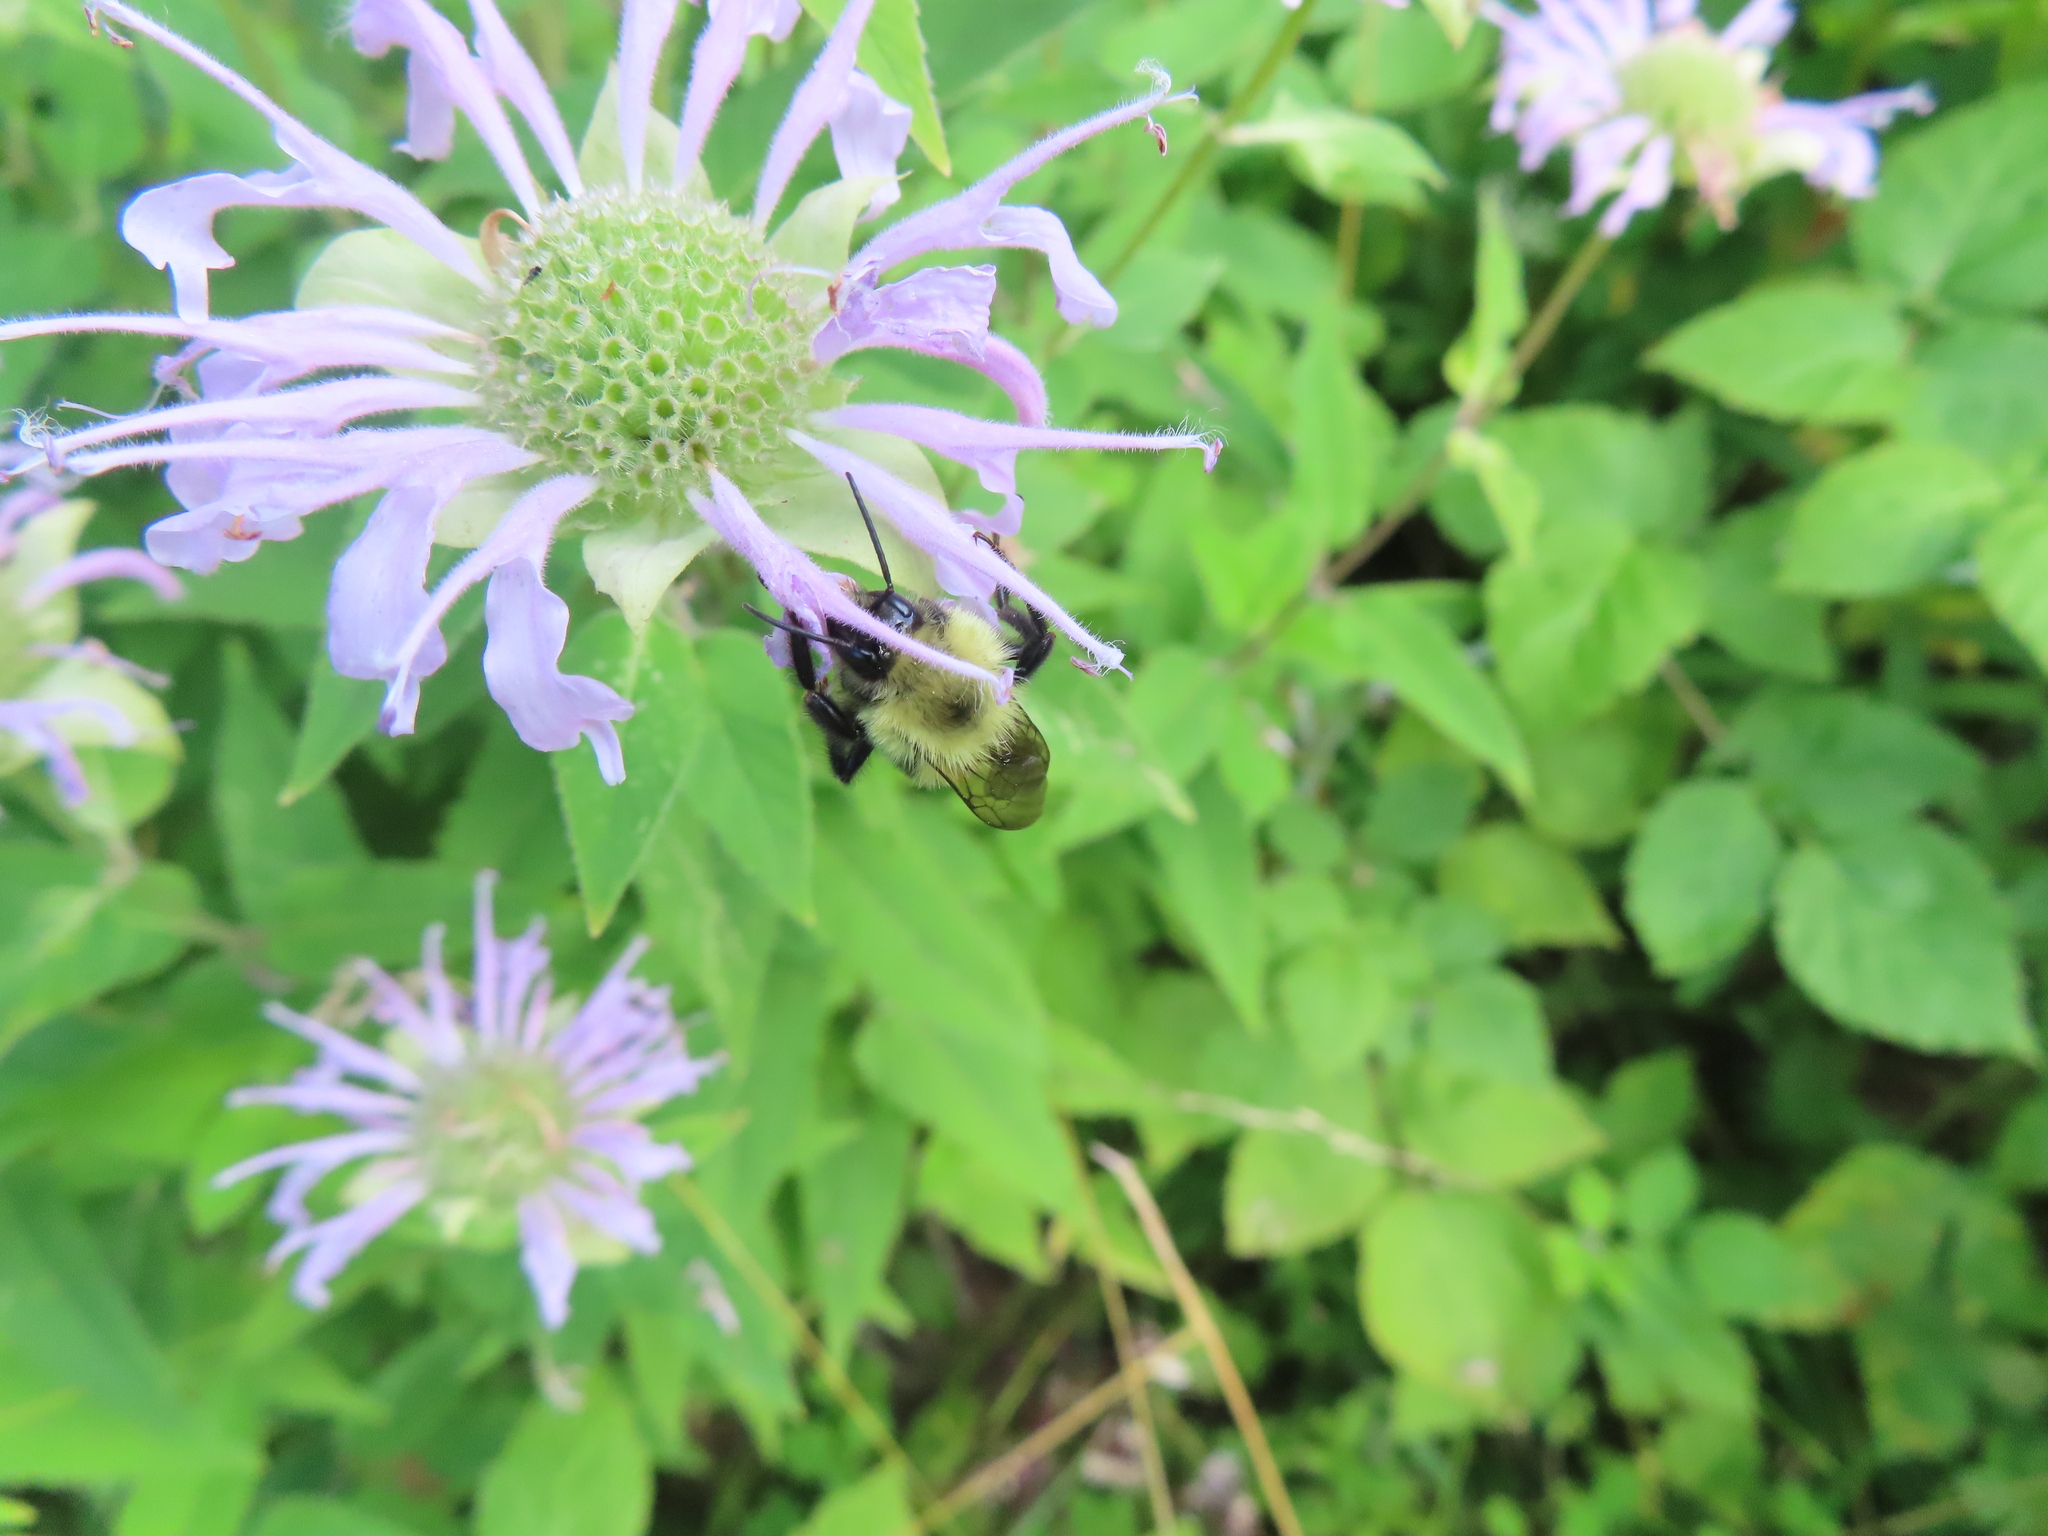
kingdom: Animalia
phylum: Arthropoda
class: Insecta
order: Hymenoptera
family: Apidae
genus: Bombus
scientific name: Bombus bimaculatus
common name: Two-spotted bumble bee
